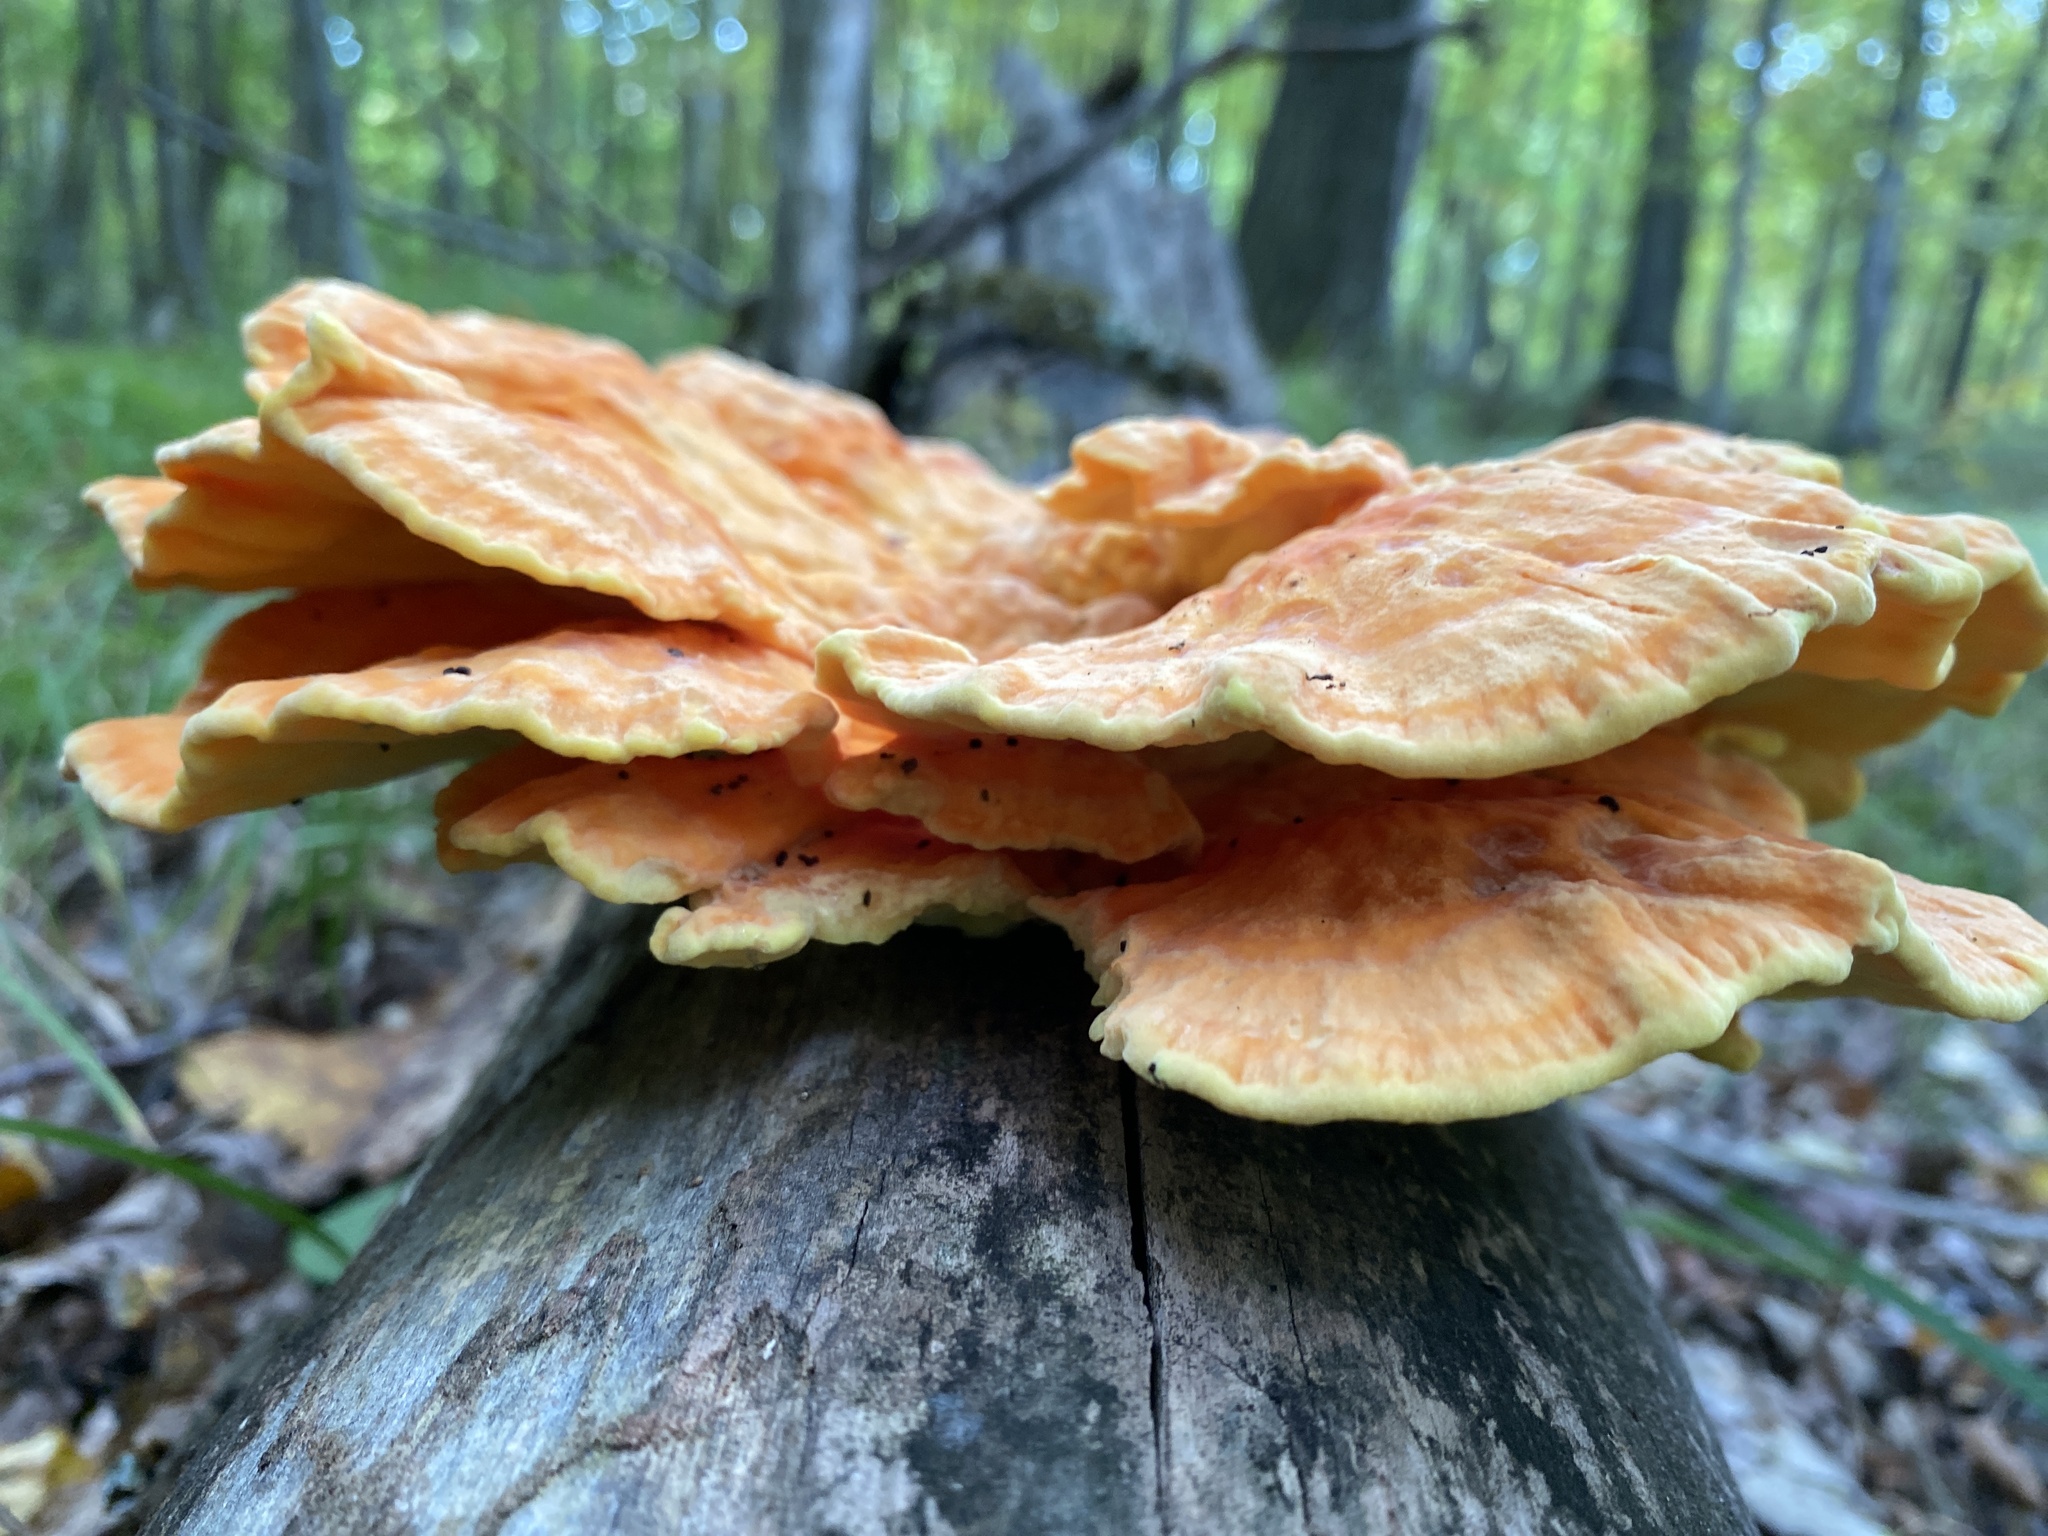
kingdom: Fungi
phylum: Basidiomycota
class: Agaricomycetes
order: Polyporales
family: Laetiporaceae
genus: Laetiporus
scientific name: Laetiporus sulphureus
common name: Chicken of the woods
